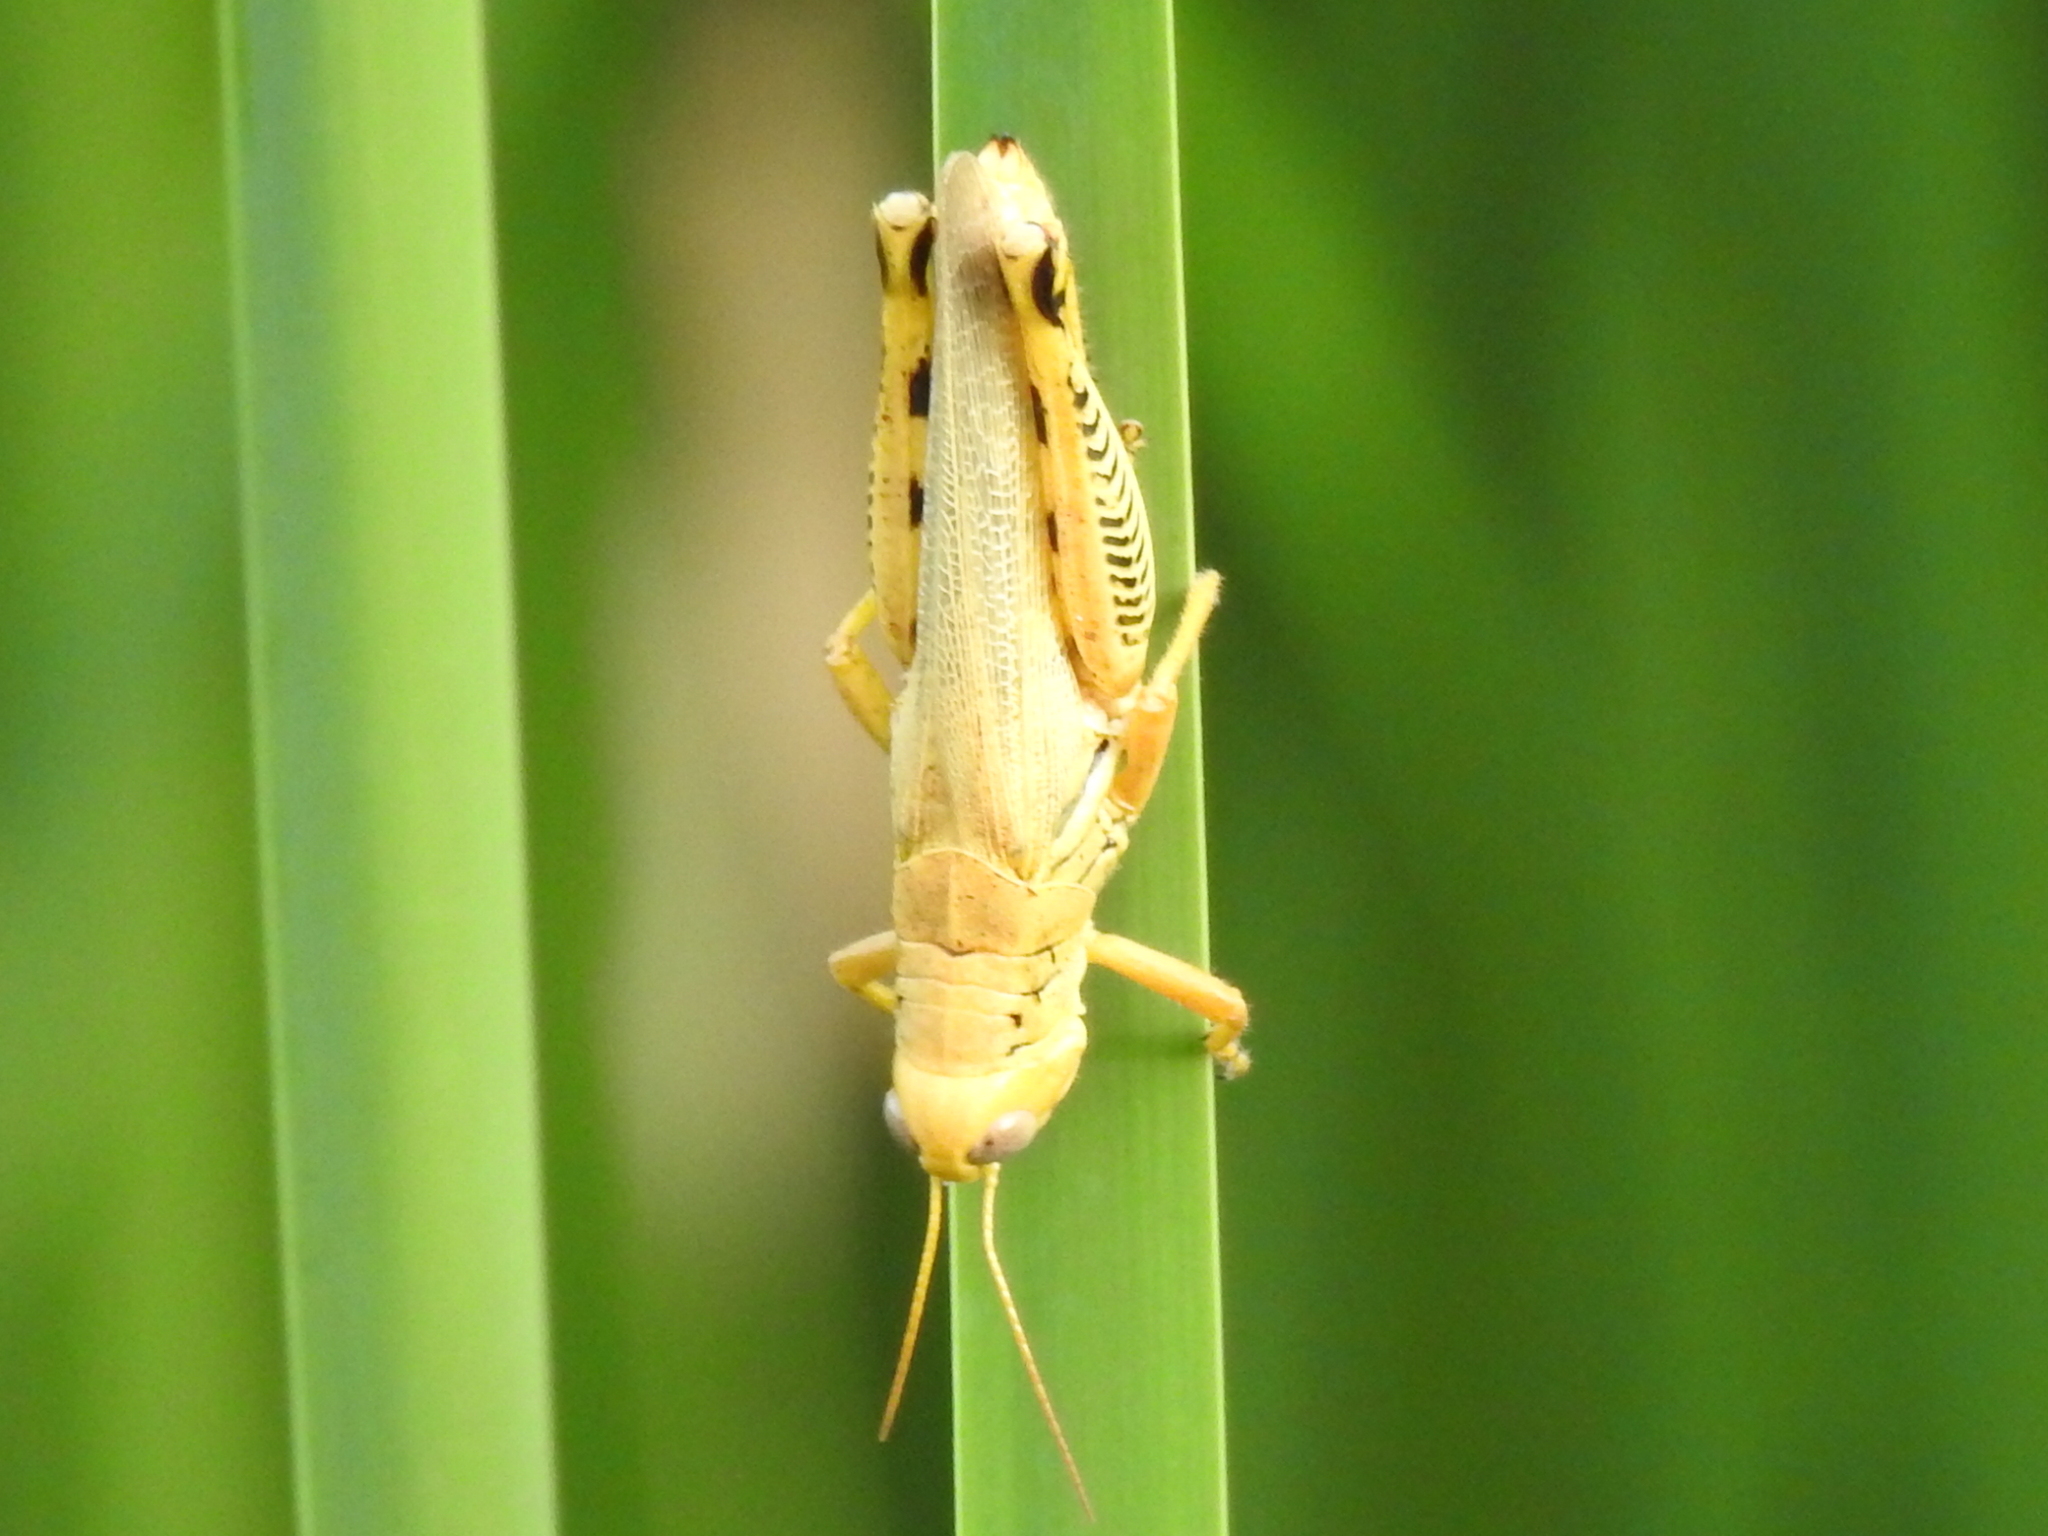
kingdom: Animalia
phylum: Arthropoda
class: Insecta
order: Orthoptera
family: Acrididae
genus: Melanoplus
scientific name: Melanoplus differentialis
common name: Differential grasshopper
